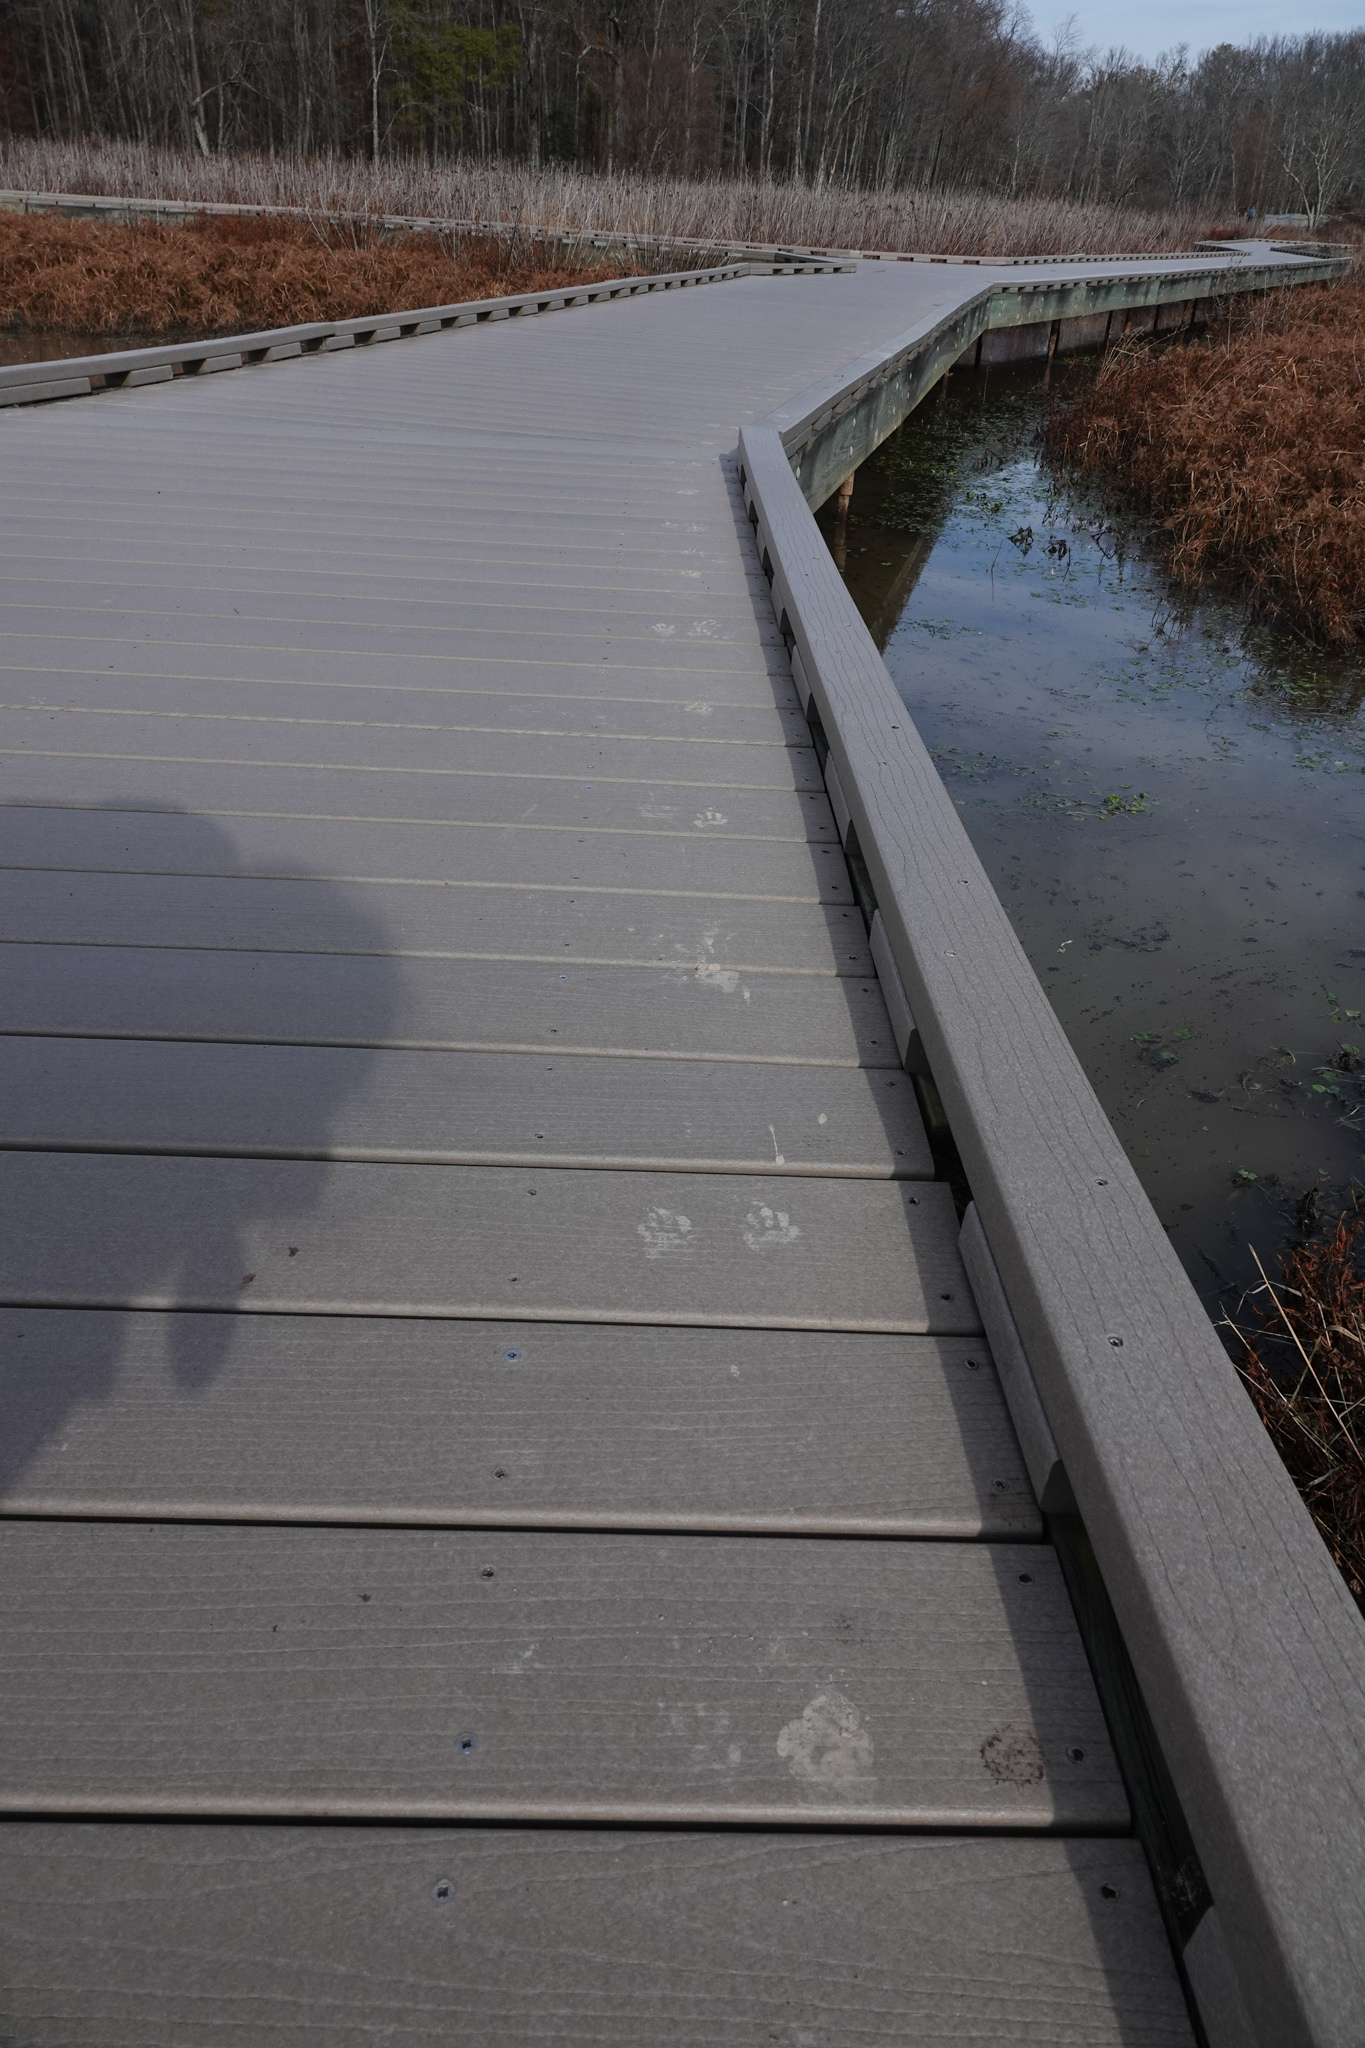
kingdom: Animalia
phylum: Chordata
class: Mammalia
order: Carnivora
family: Procyonidae
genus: Procyon
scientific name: Procyon lotor
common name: Raccoon
